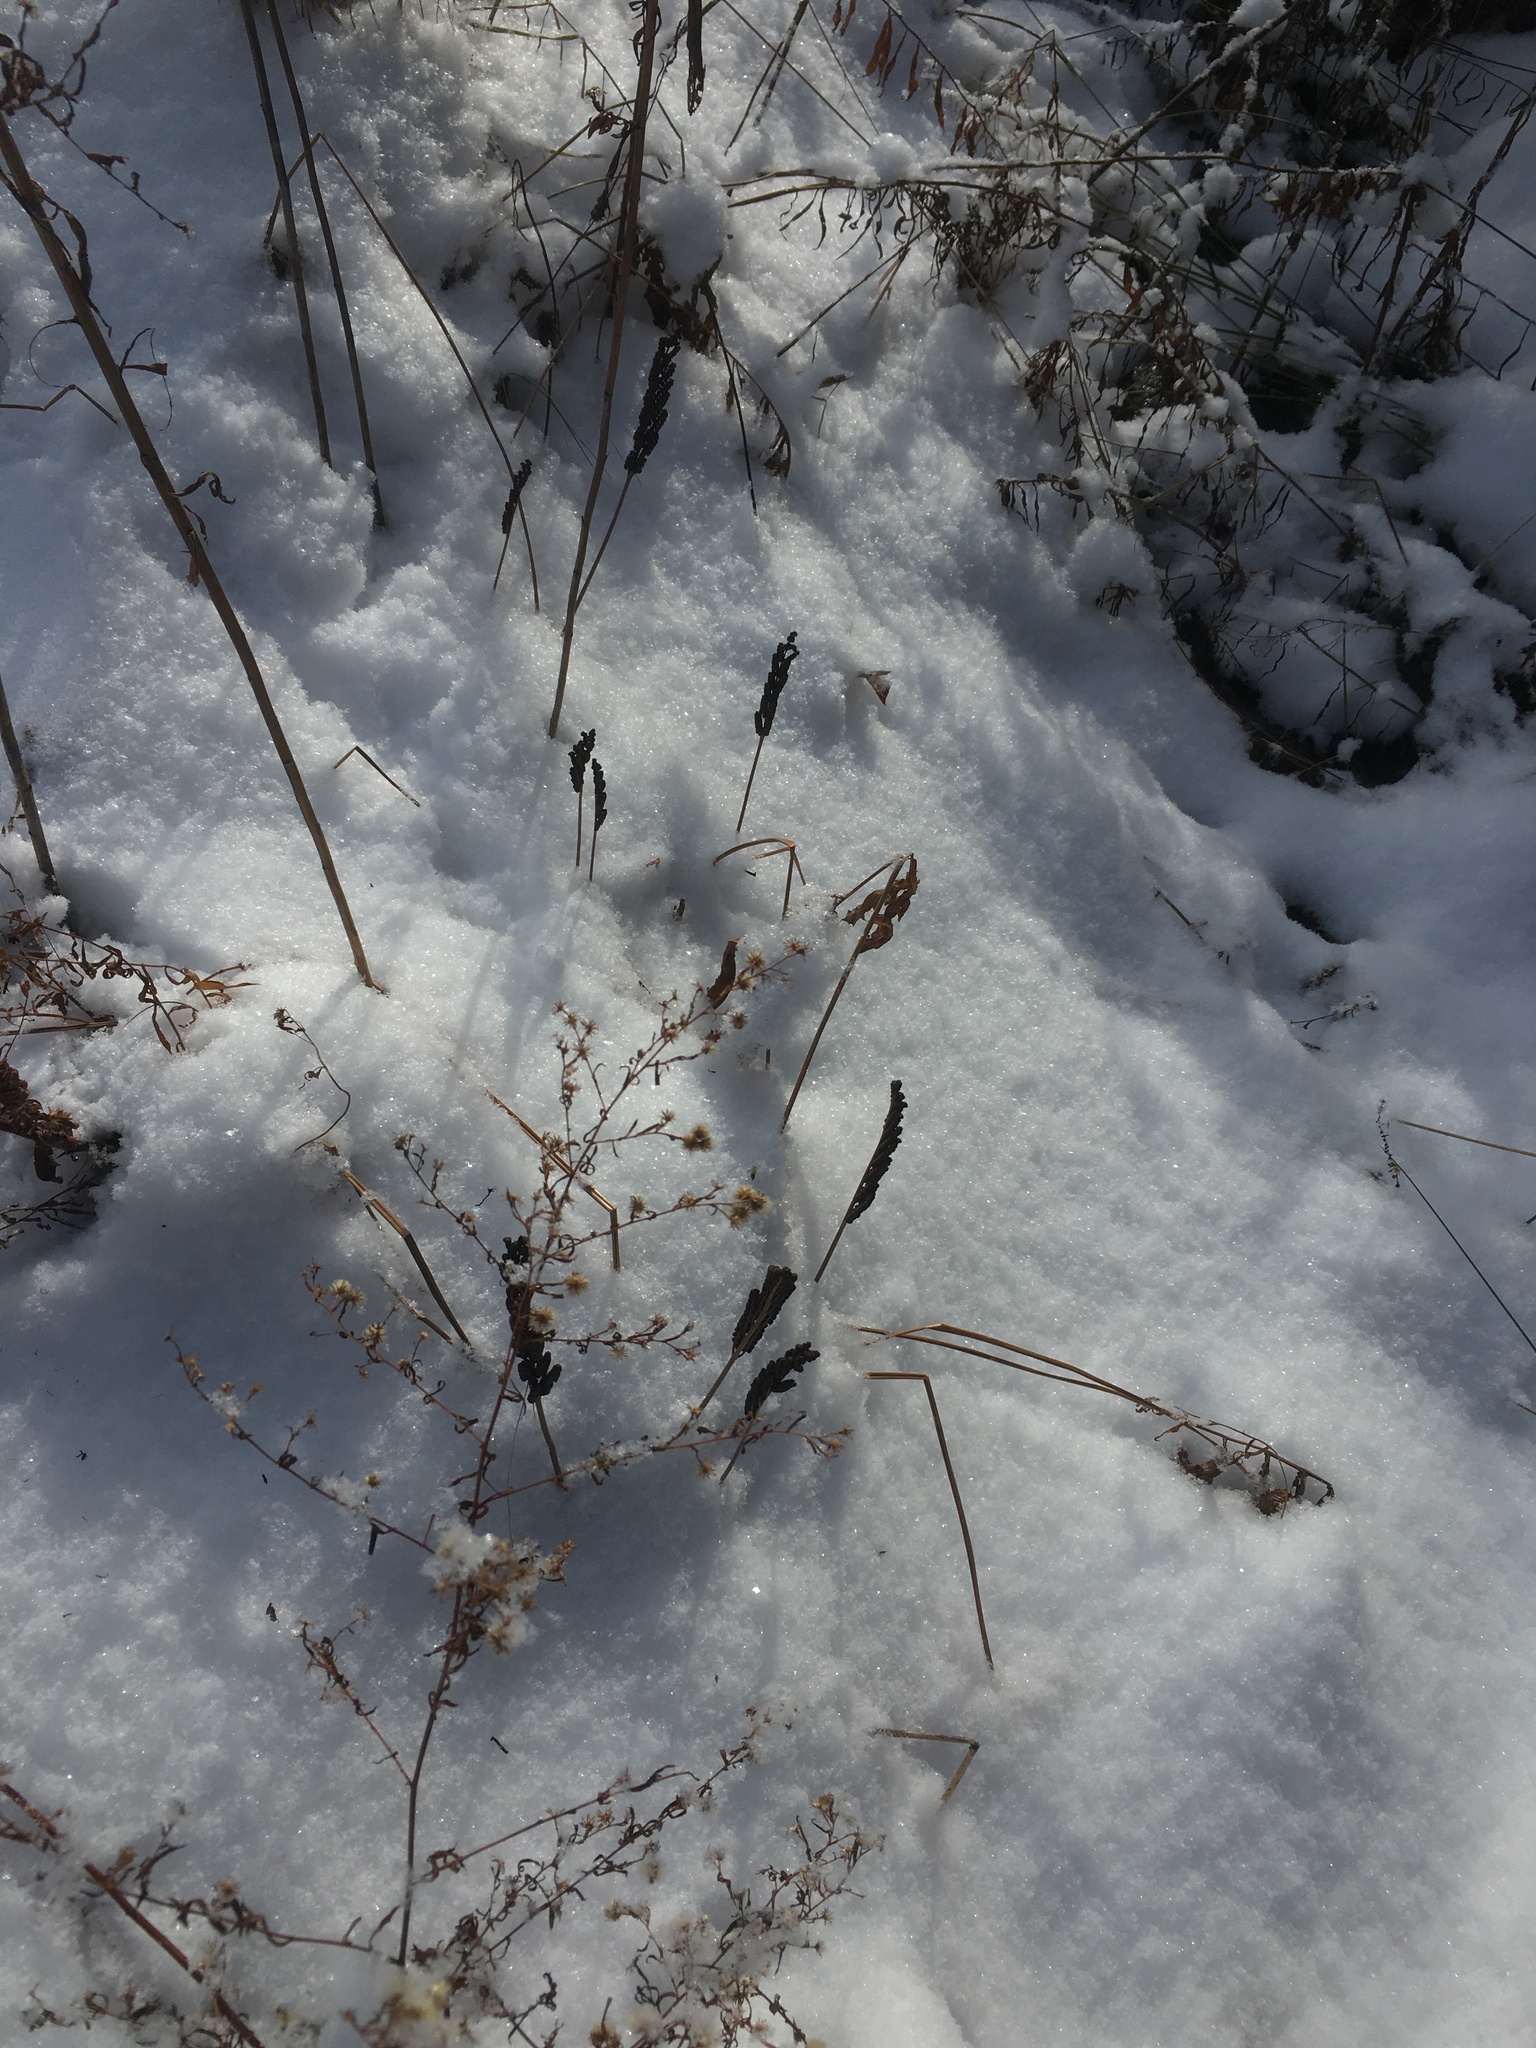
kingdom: Plantae
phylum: Tracheophyta
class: Polypodiopsida
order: Polypodiales
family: Onocleaceae
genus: Onoclea
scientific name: Onoclea sensibilis
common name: Sensitive fern
